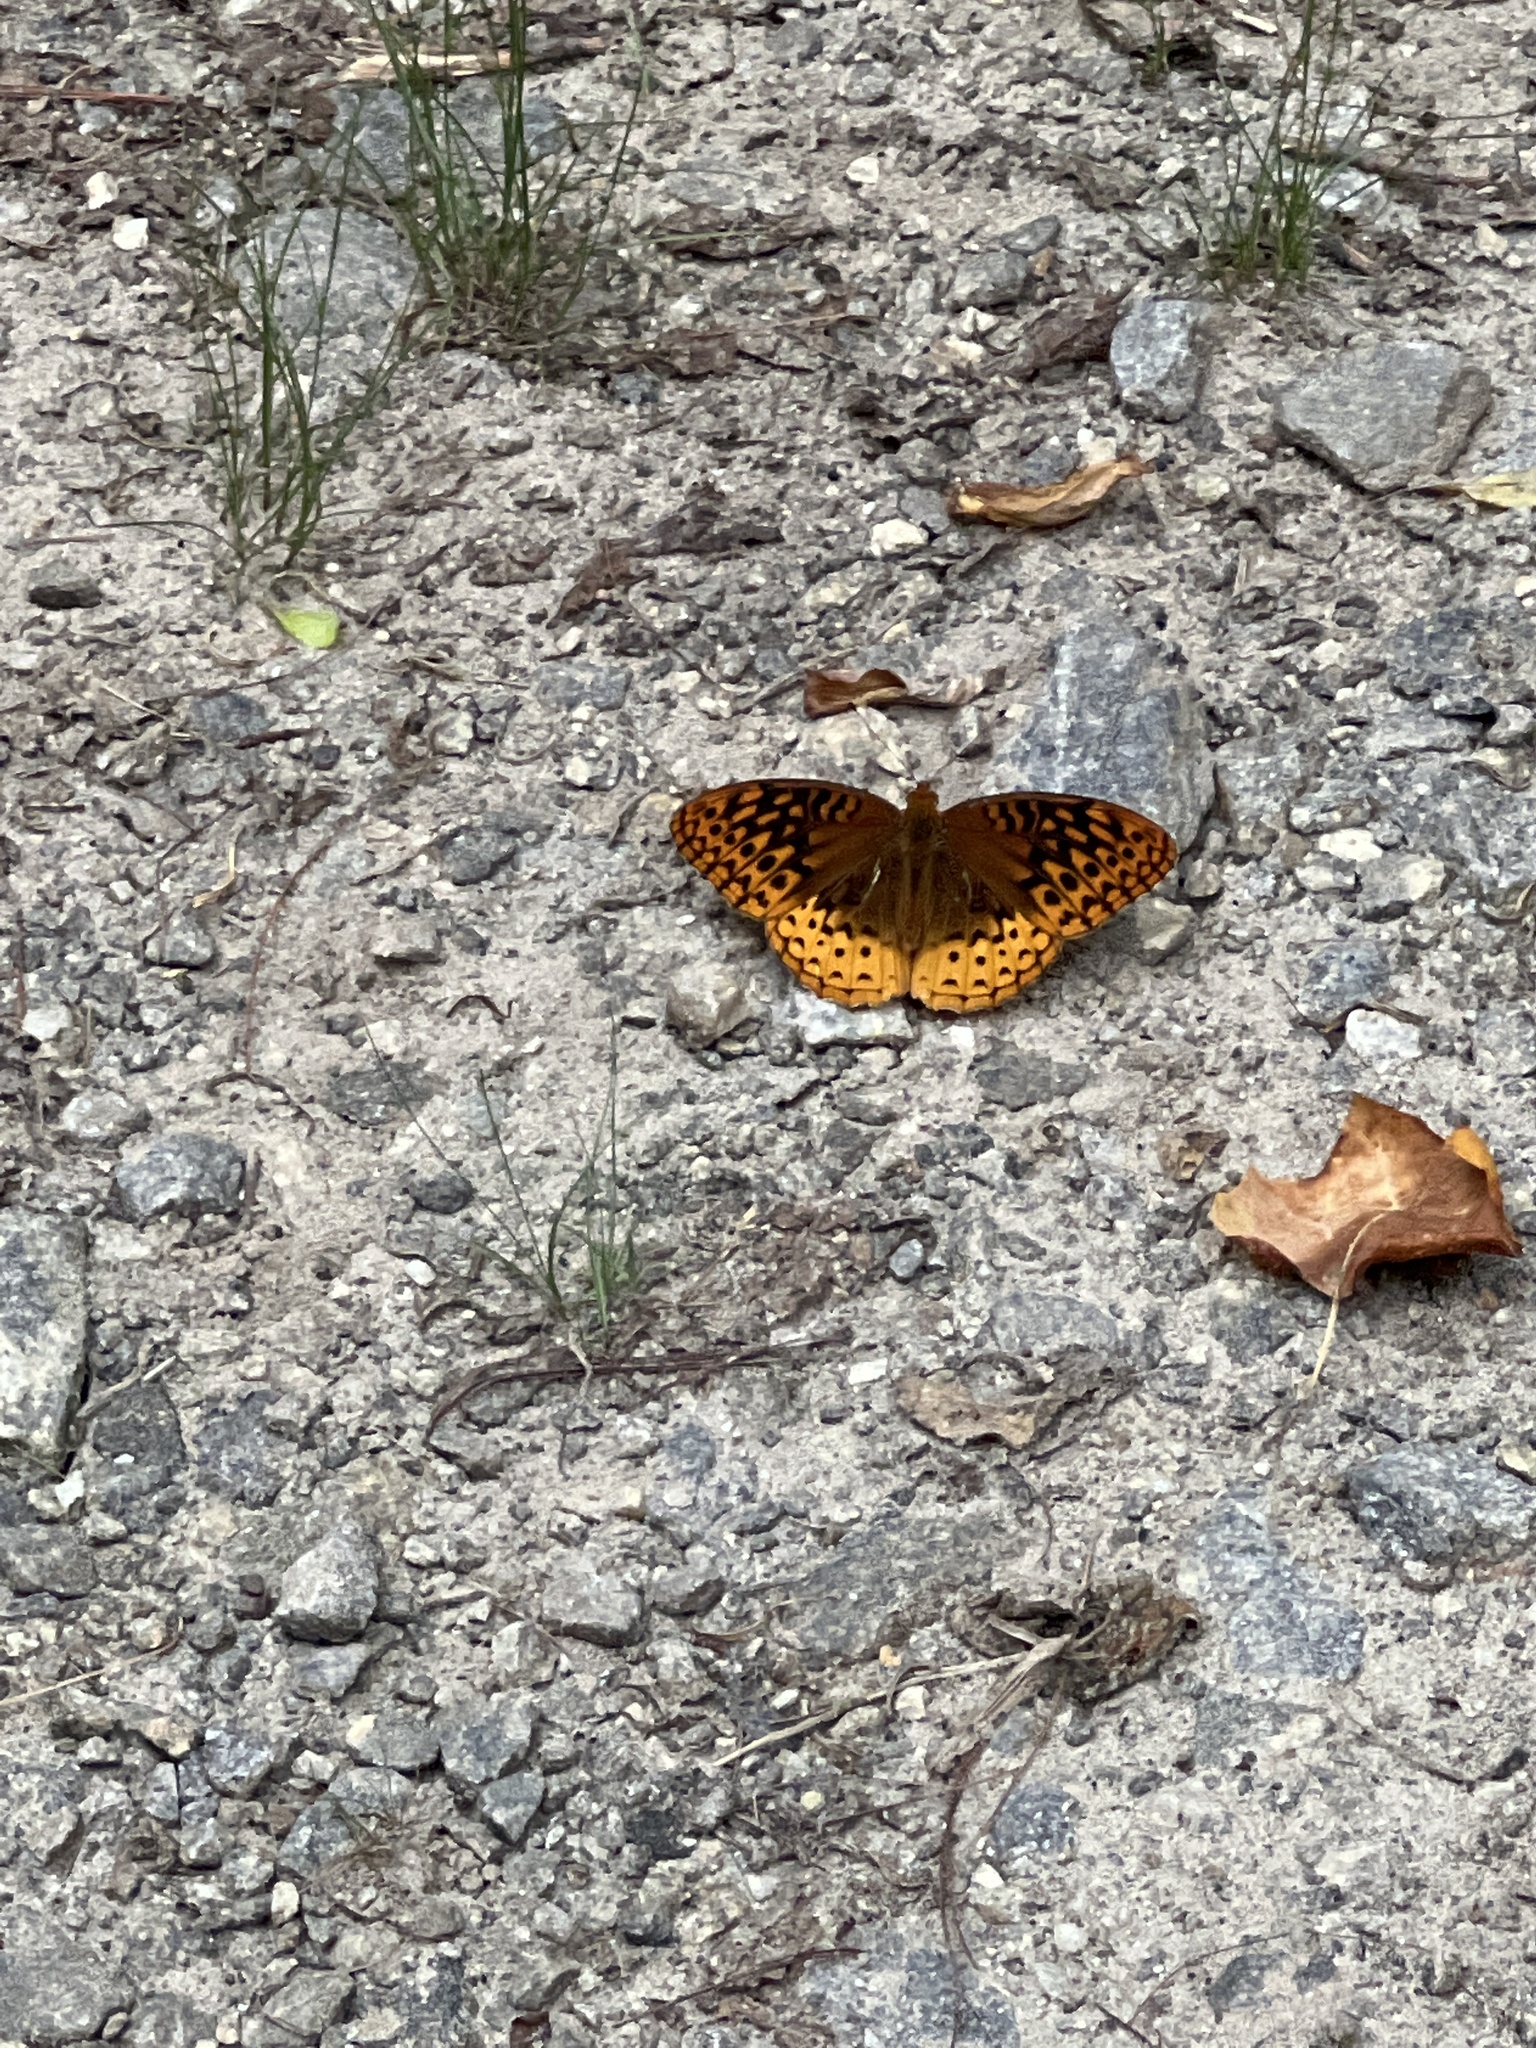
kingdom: Animalia
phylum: Arthropoda
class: Insecta
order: Lepidoptera
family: Nymphalidae
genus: Speyeria
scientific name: Speyeria cybele
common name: Great spangled fritillary
